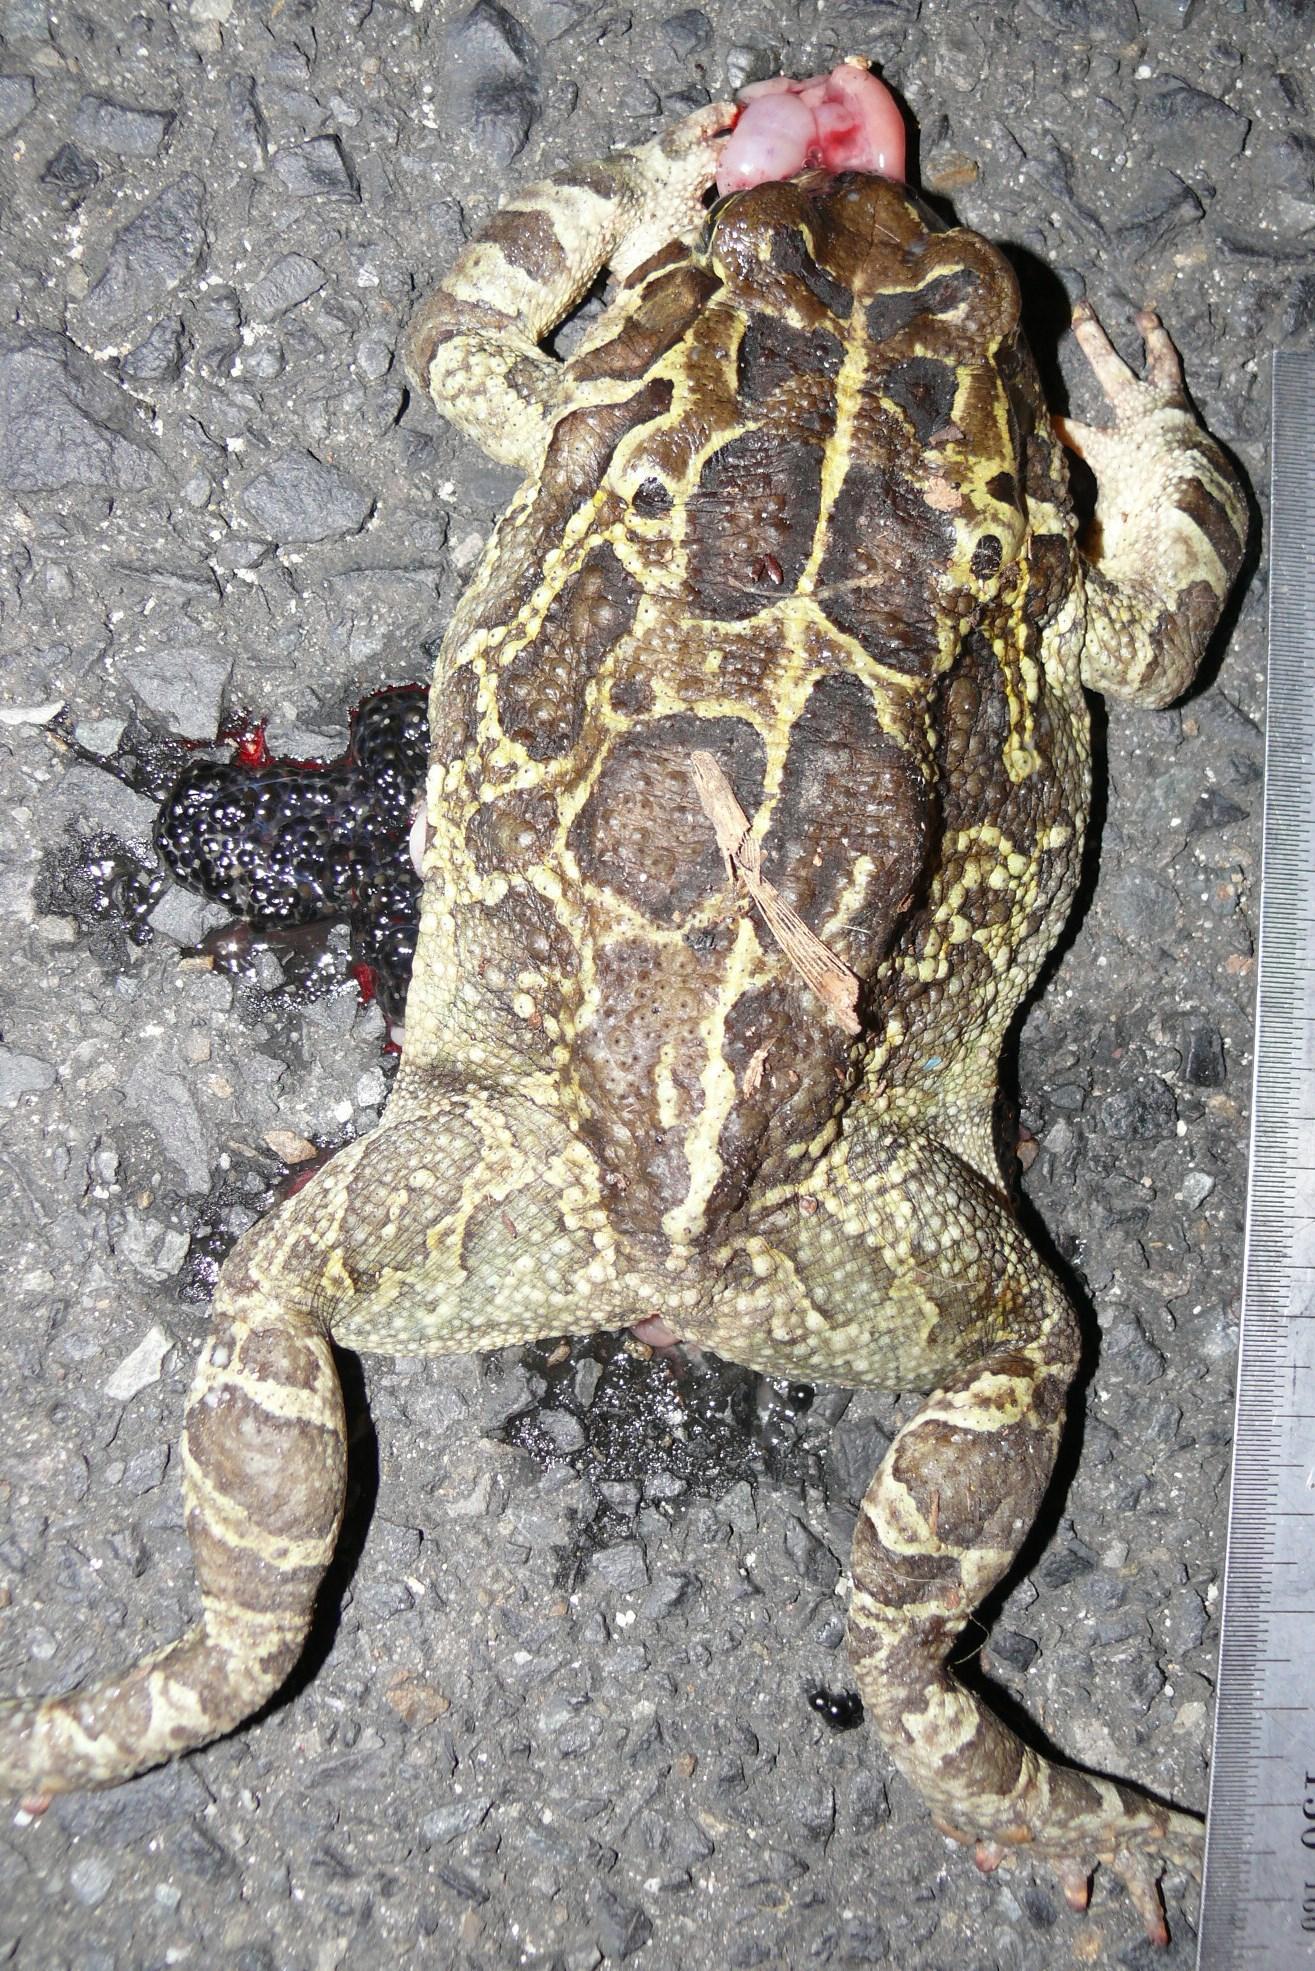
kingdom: Animalia
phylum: Chordata
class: Amphibia
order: Anura
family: Bufonidae
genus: Sclerophrys
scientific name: Sclerophrys pantherina
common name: Panther toad
